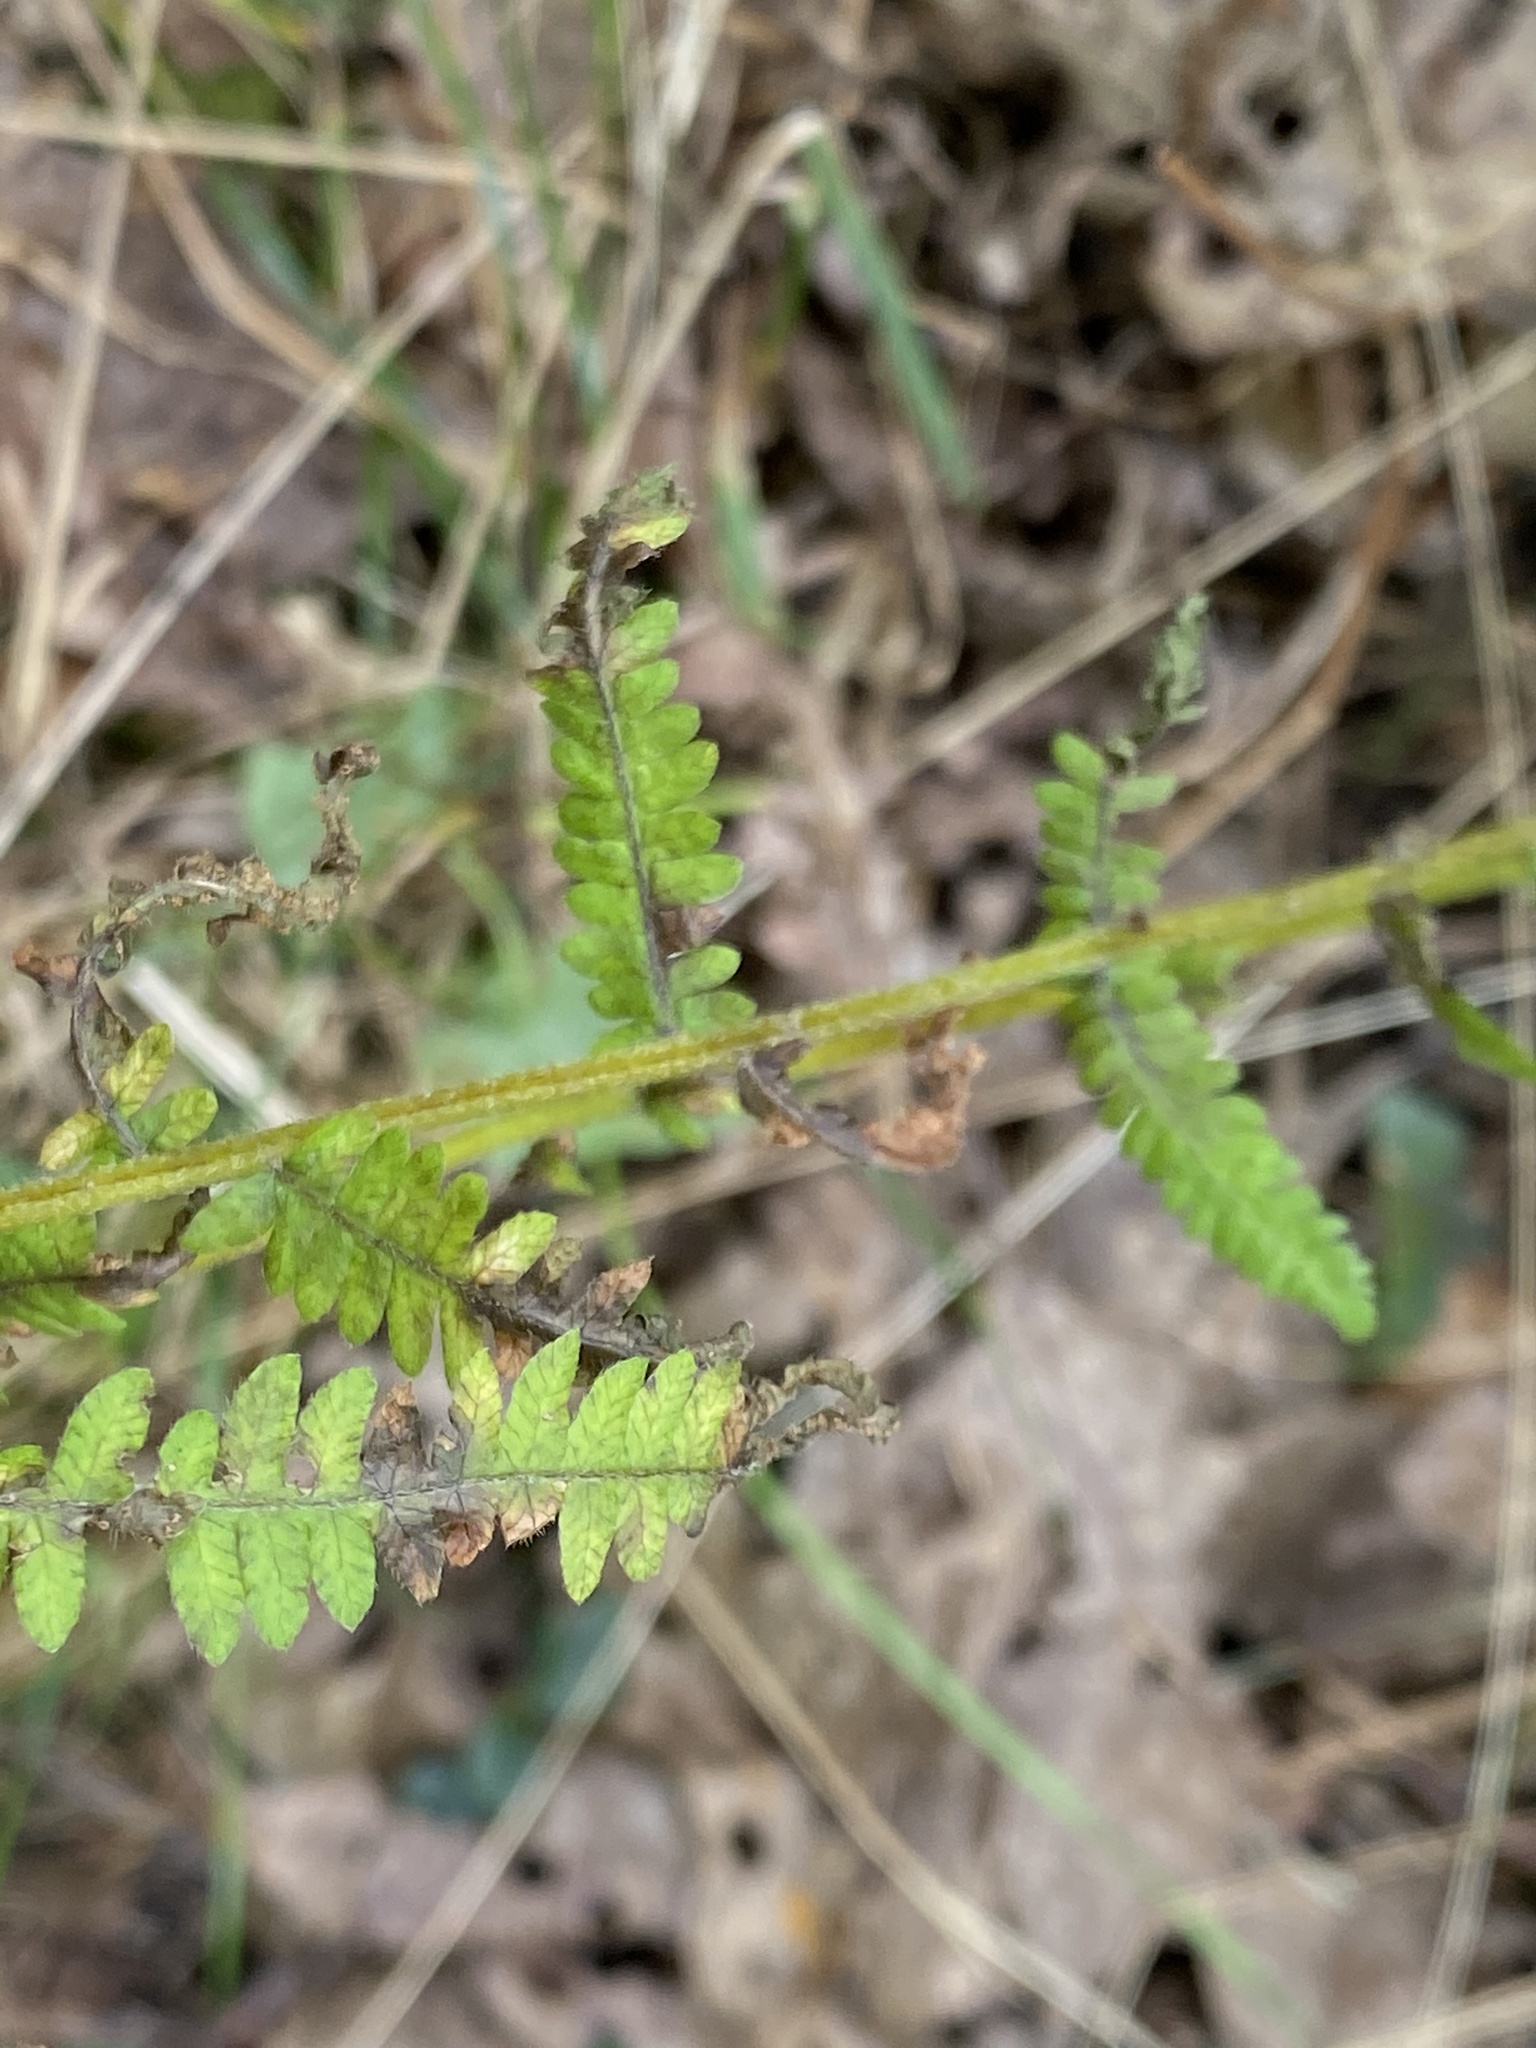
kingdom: Plantae
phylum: Tracheophyta
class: Polypodiopsida
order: Polypodiales
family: Thelypteridaceae
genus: Amauropelta
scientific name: Amauropelta noveboracensis
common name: New york fern
